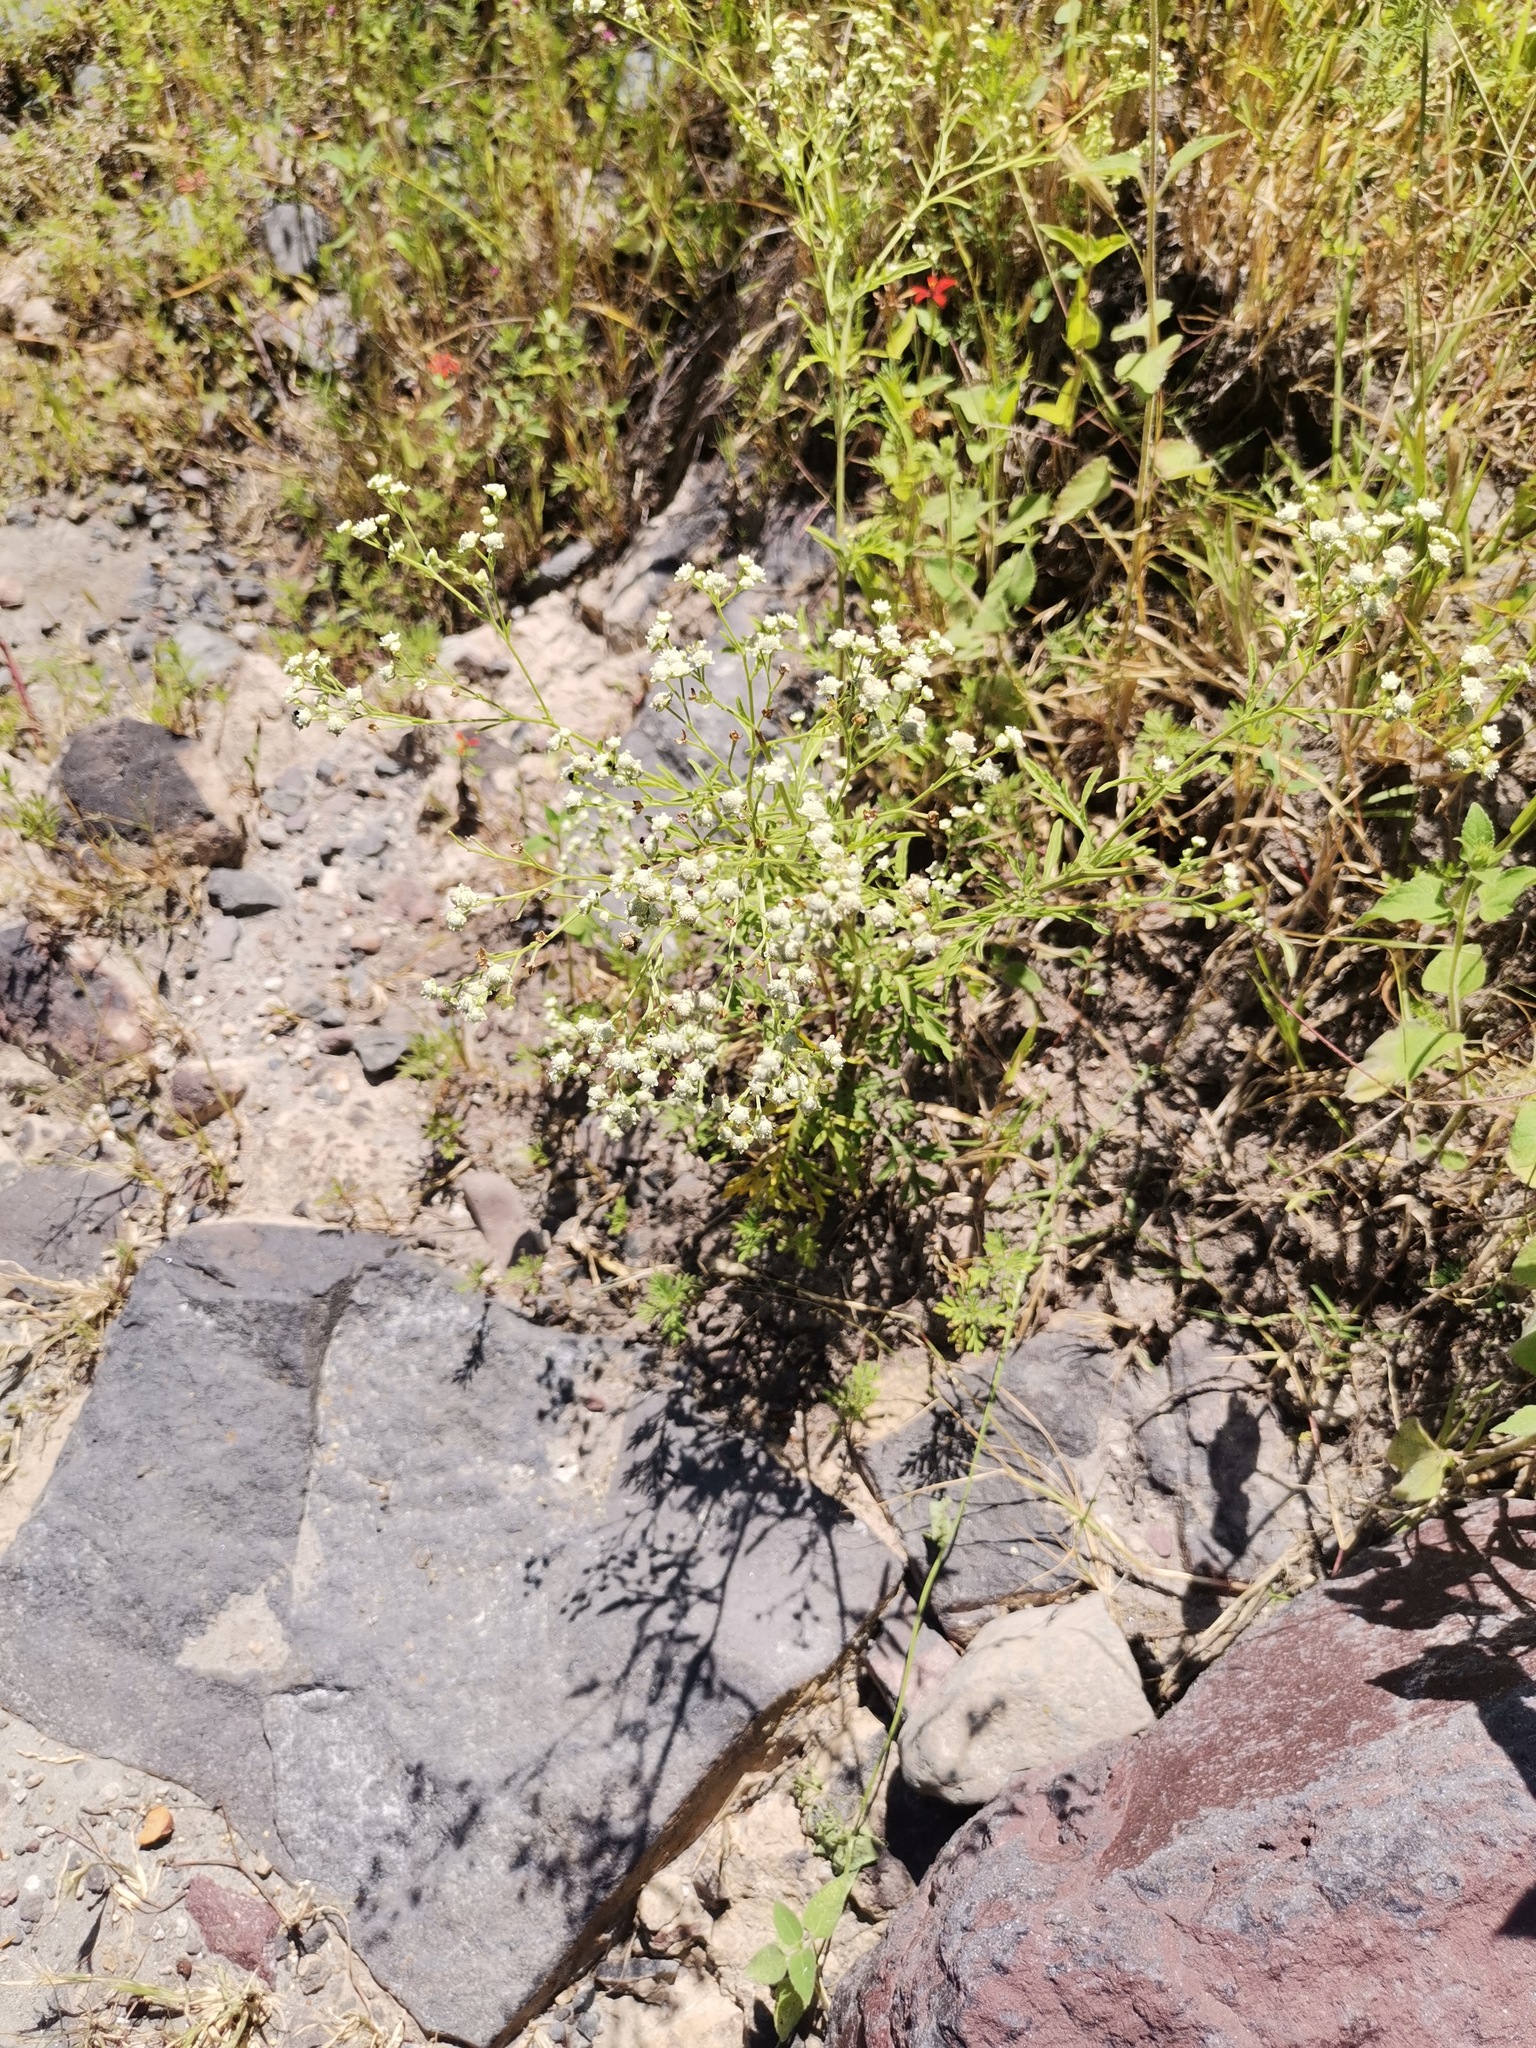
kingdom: Plantae
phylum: Tracheophyta
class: Magnoliopsida
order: Asterales
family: Asteraceae
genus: Parthenium
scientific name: Parthenium hysterophorus
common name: Santa maria feverfew
